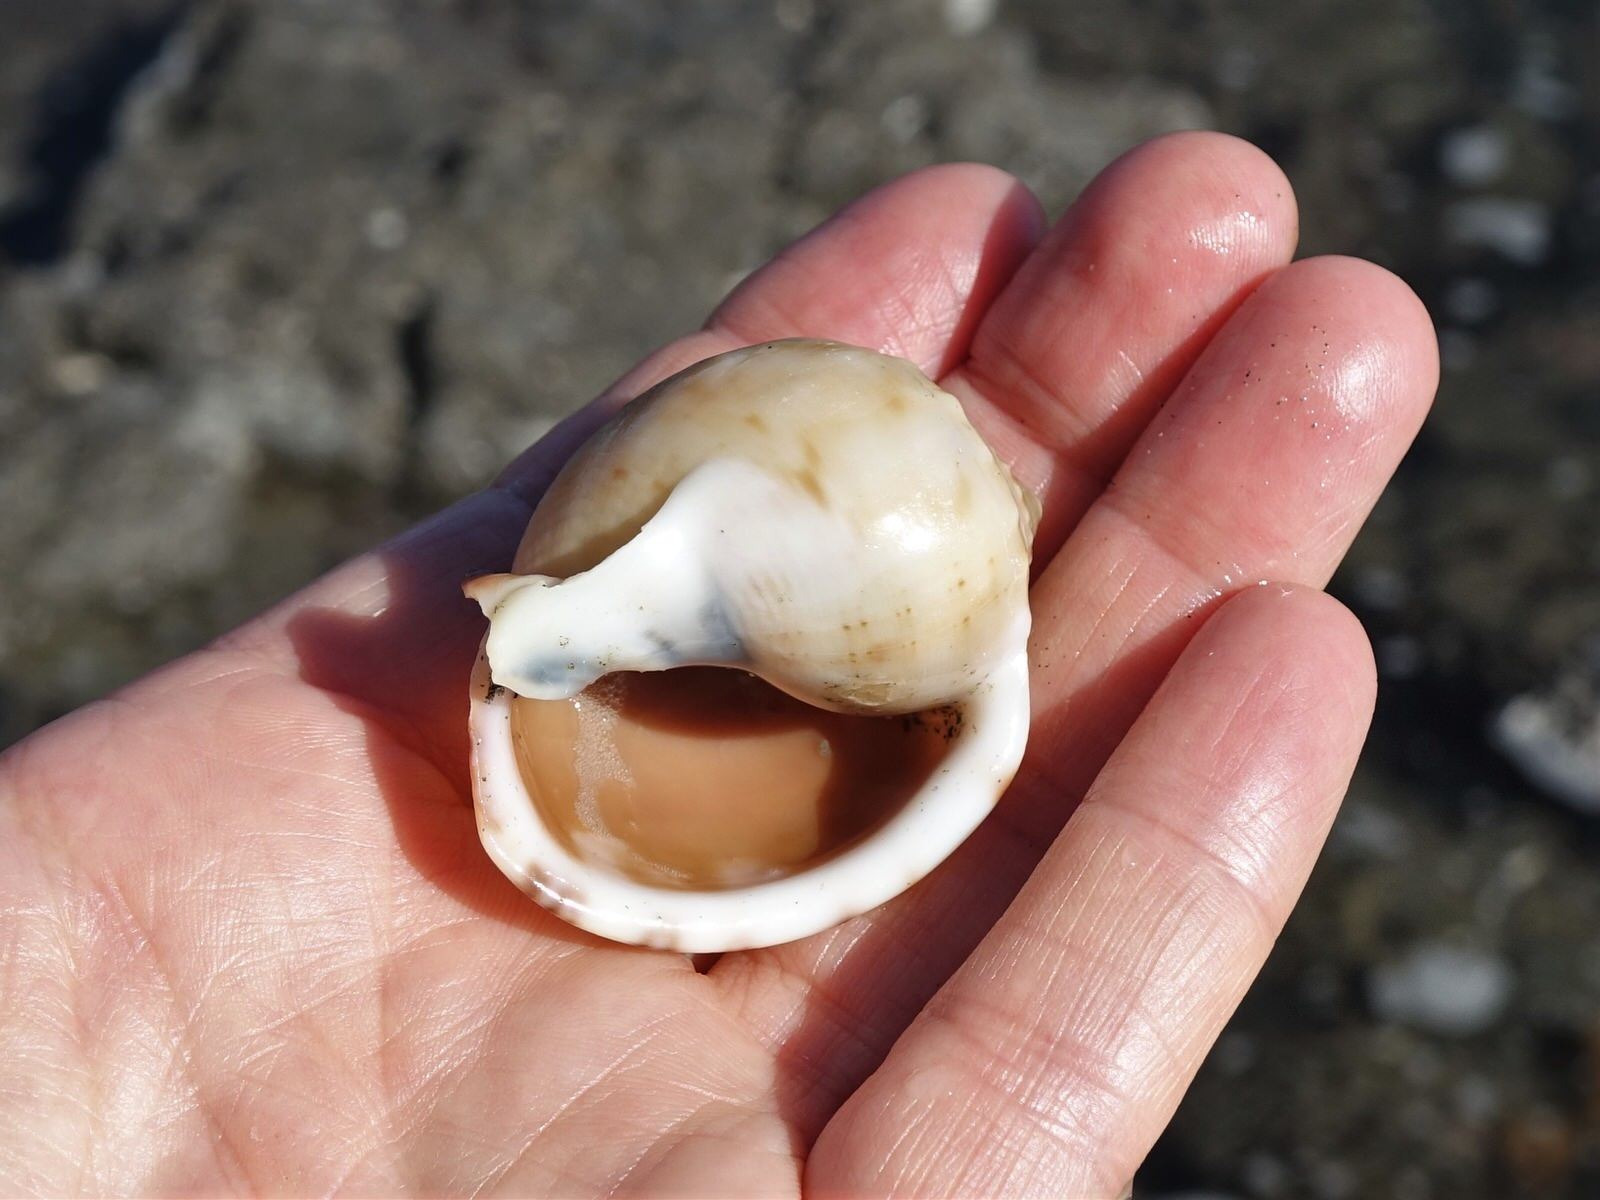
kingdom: Animalia
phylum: Mollusca
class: Gastropoda
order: Littorinimorpha
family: Cassidae
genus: Semicassis
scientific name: Semicassis pyrum
